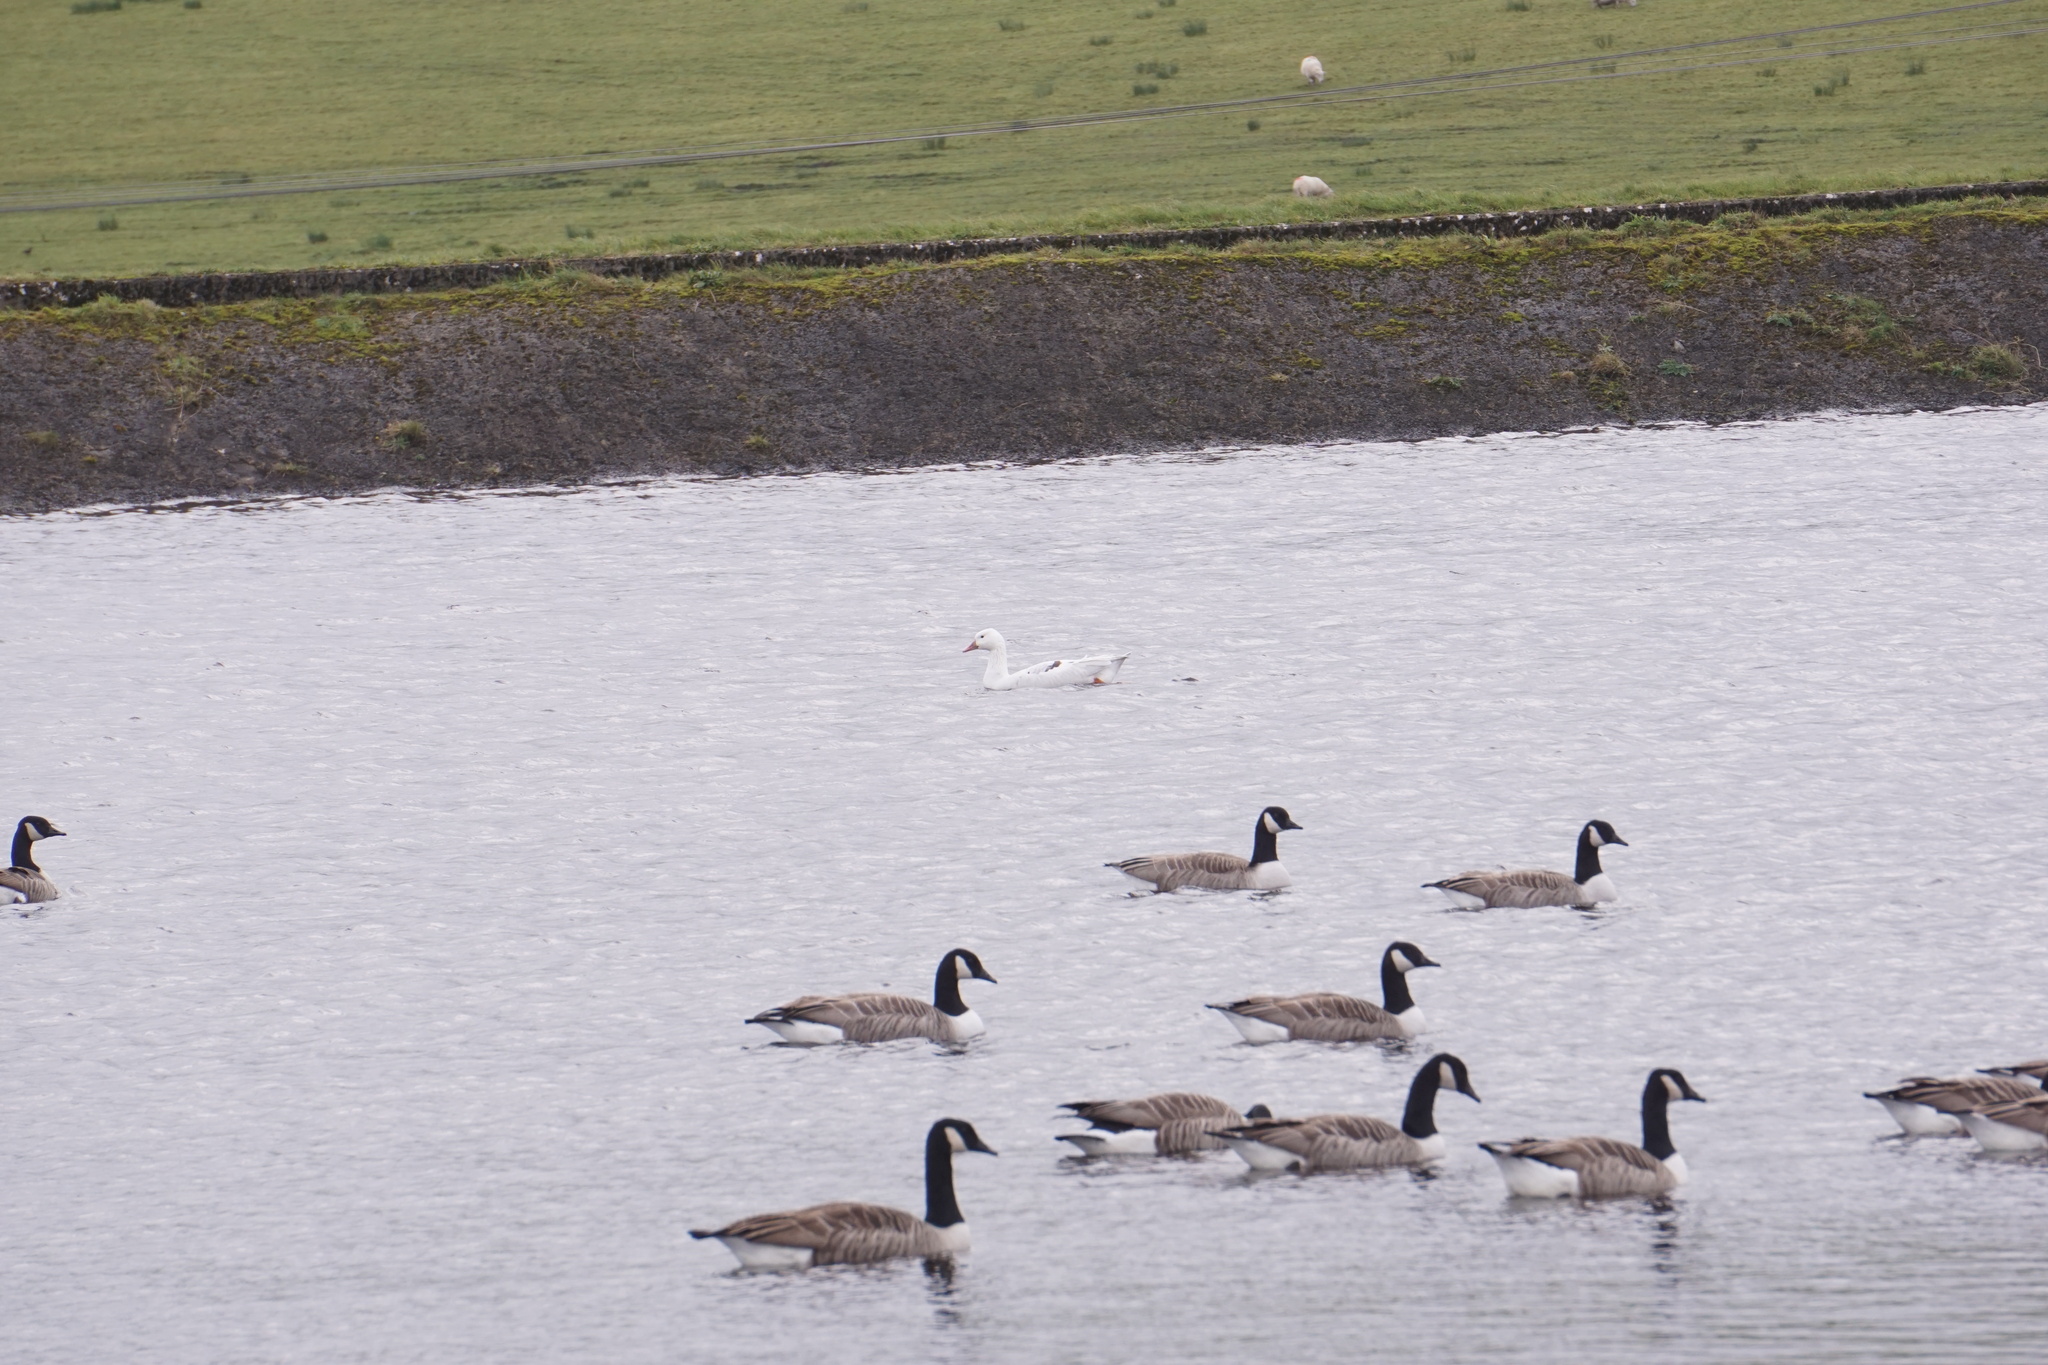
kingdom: Animalia
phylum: Chordata
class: Aves
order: Anseriformes
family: Anatidae
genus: Branta
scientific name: Branta canadensis
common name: Canada goose
